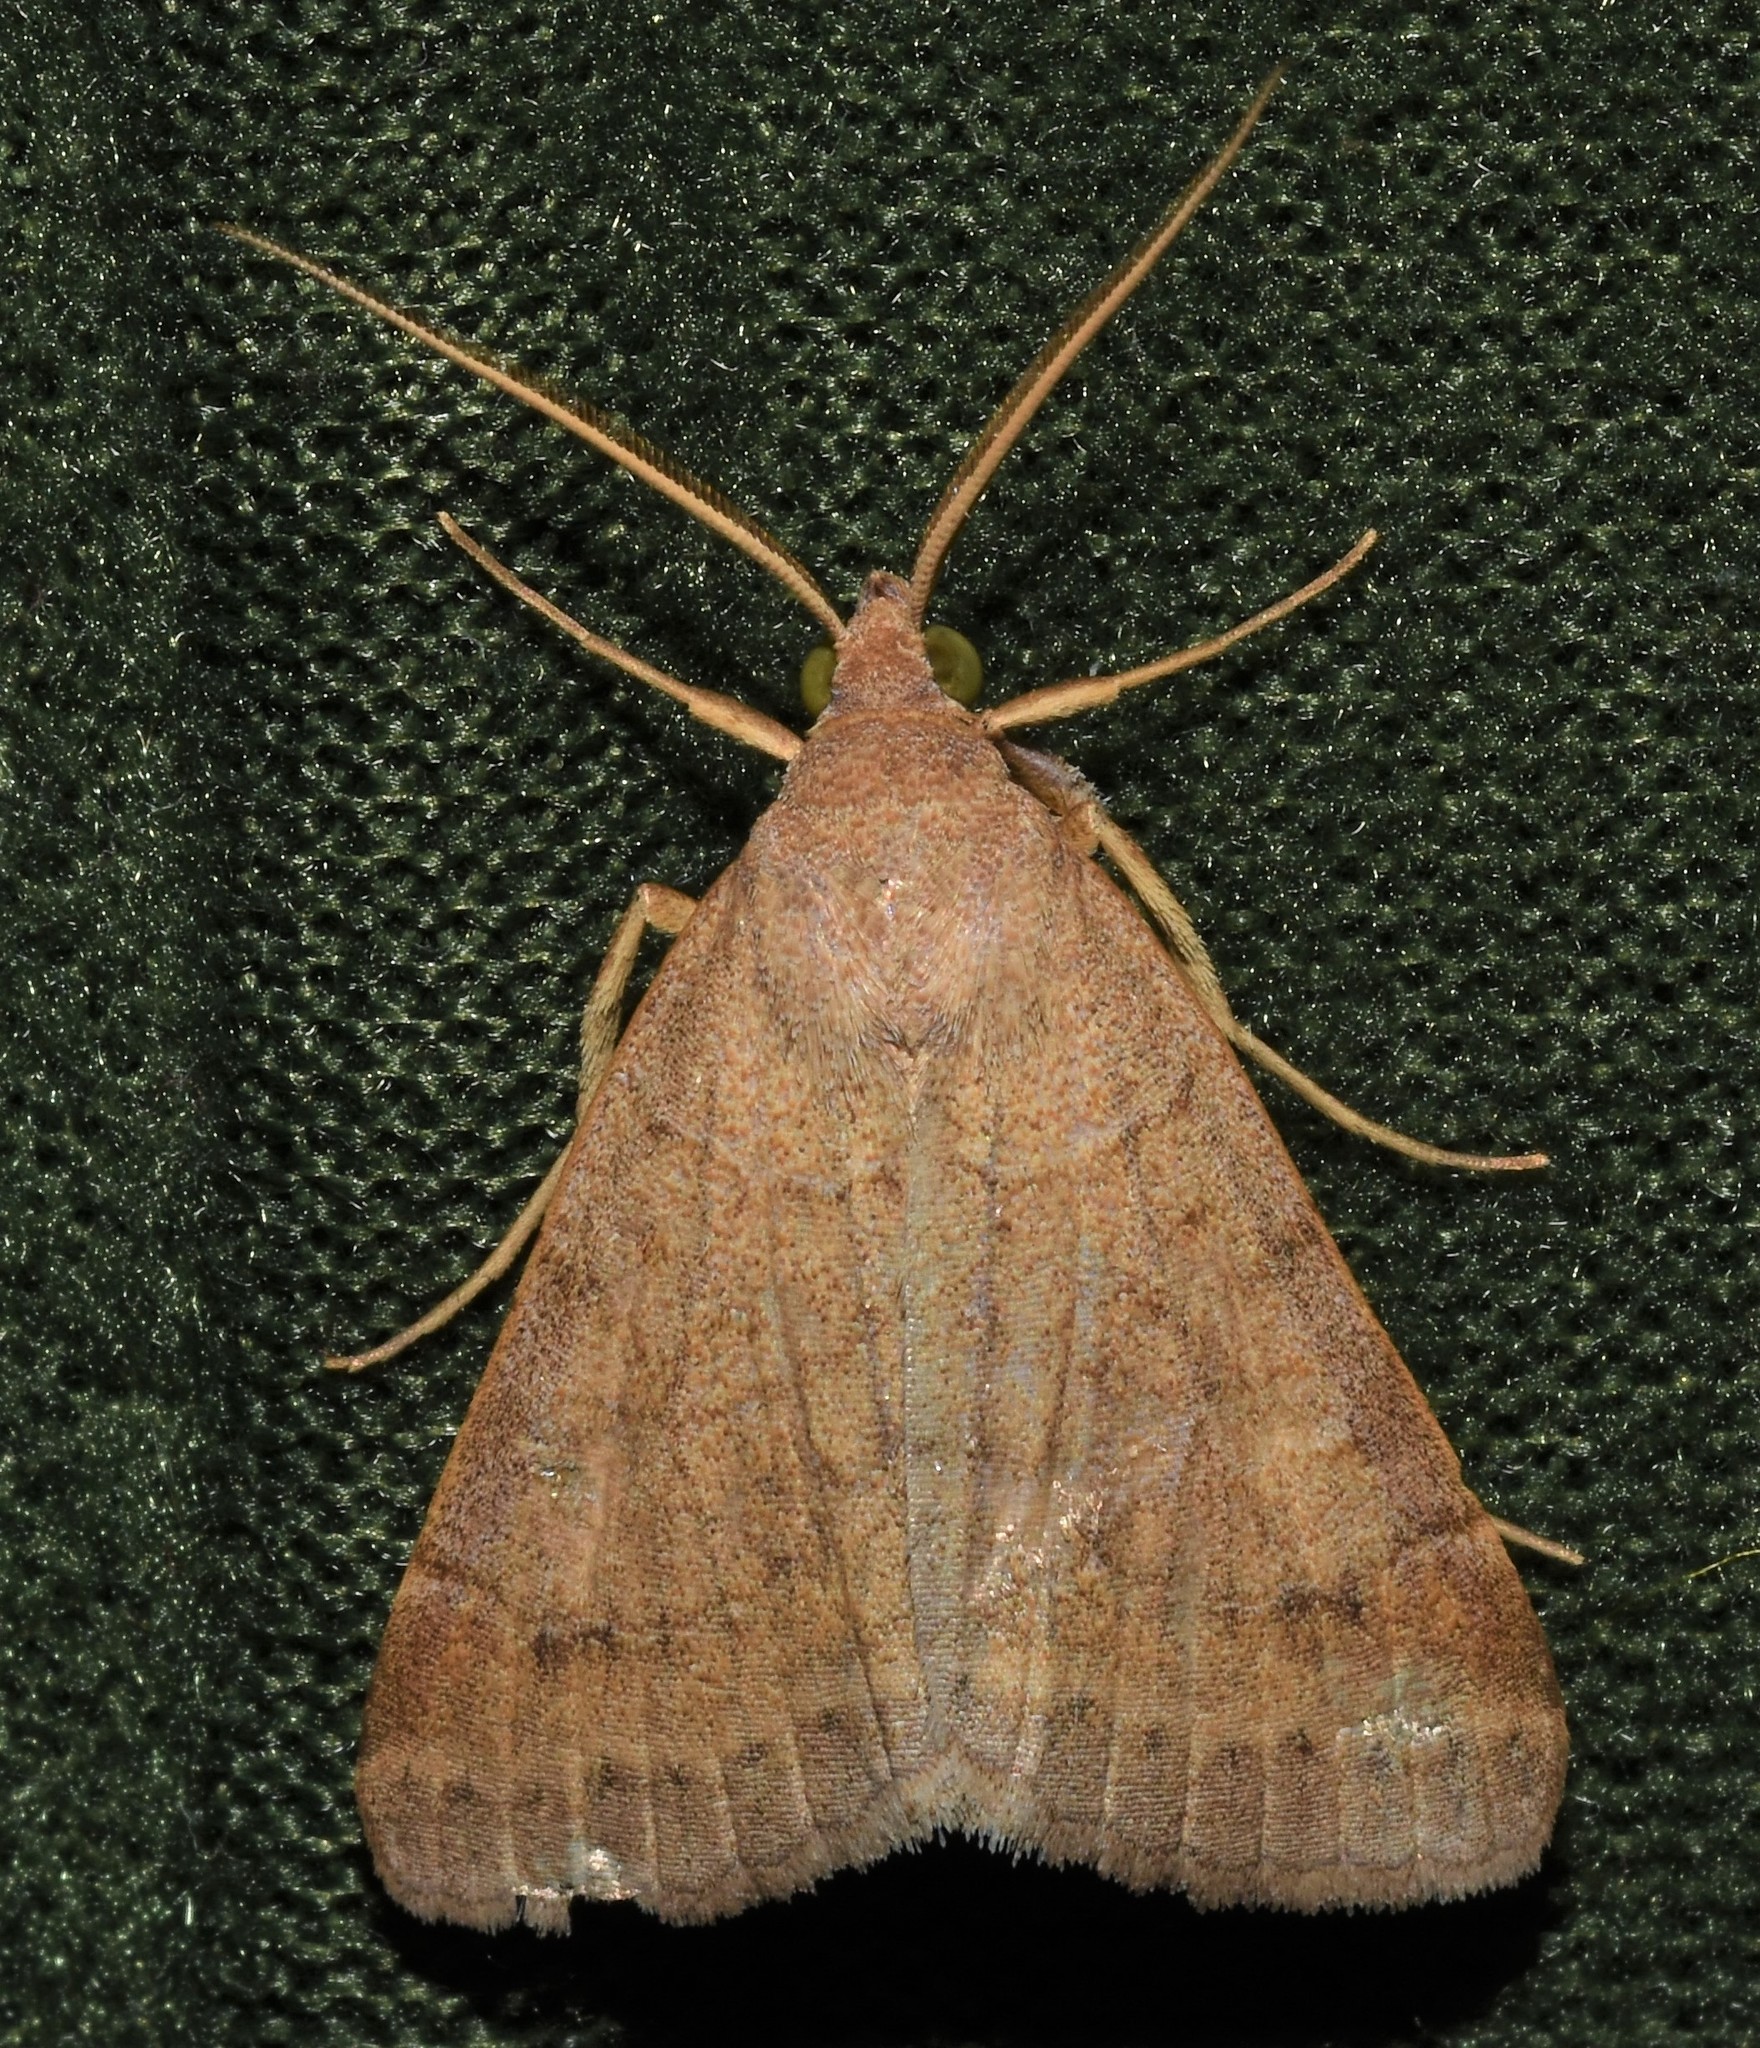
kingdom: Animalia
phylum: Arthropoda
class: Insecta
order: Lepidoptera
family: Erebidae
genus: Caenurgia
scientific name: Caenurgia chloropha
